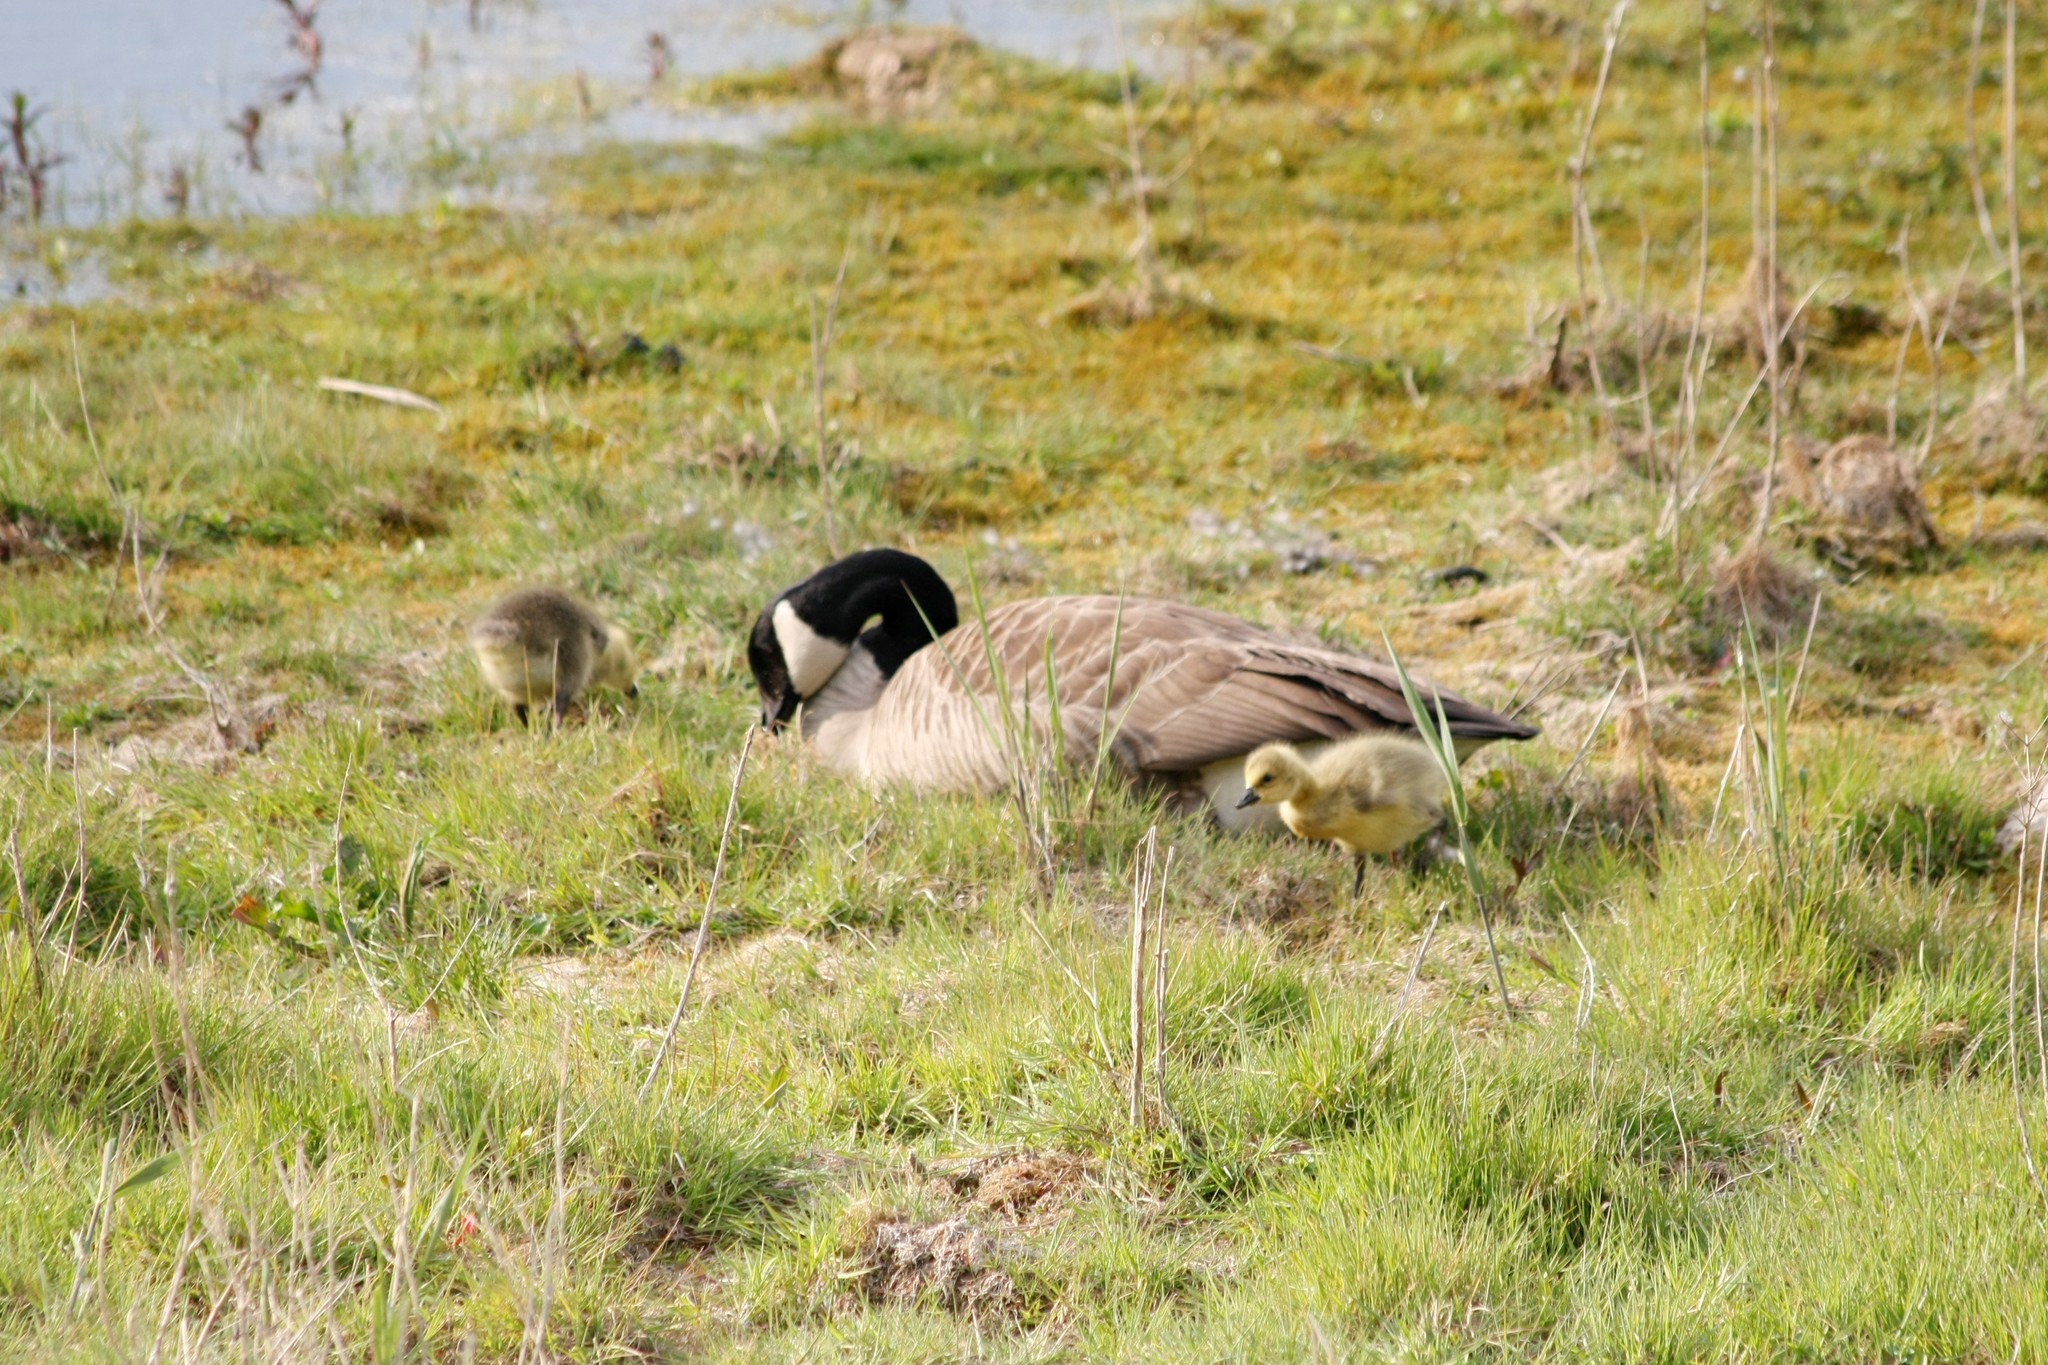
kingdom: Animalia
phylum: Chordata
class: Aves
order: Anseriformes
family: Anatidae
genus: Branta
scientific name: Branta canadensis
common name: Canada goose
